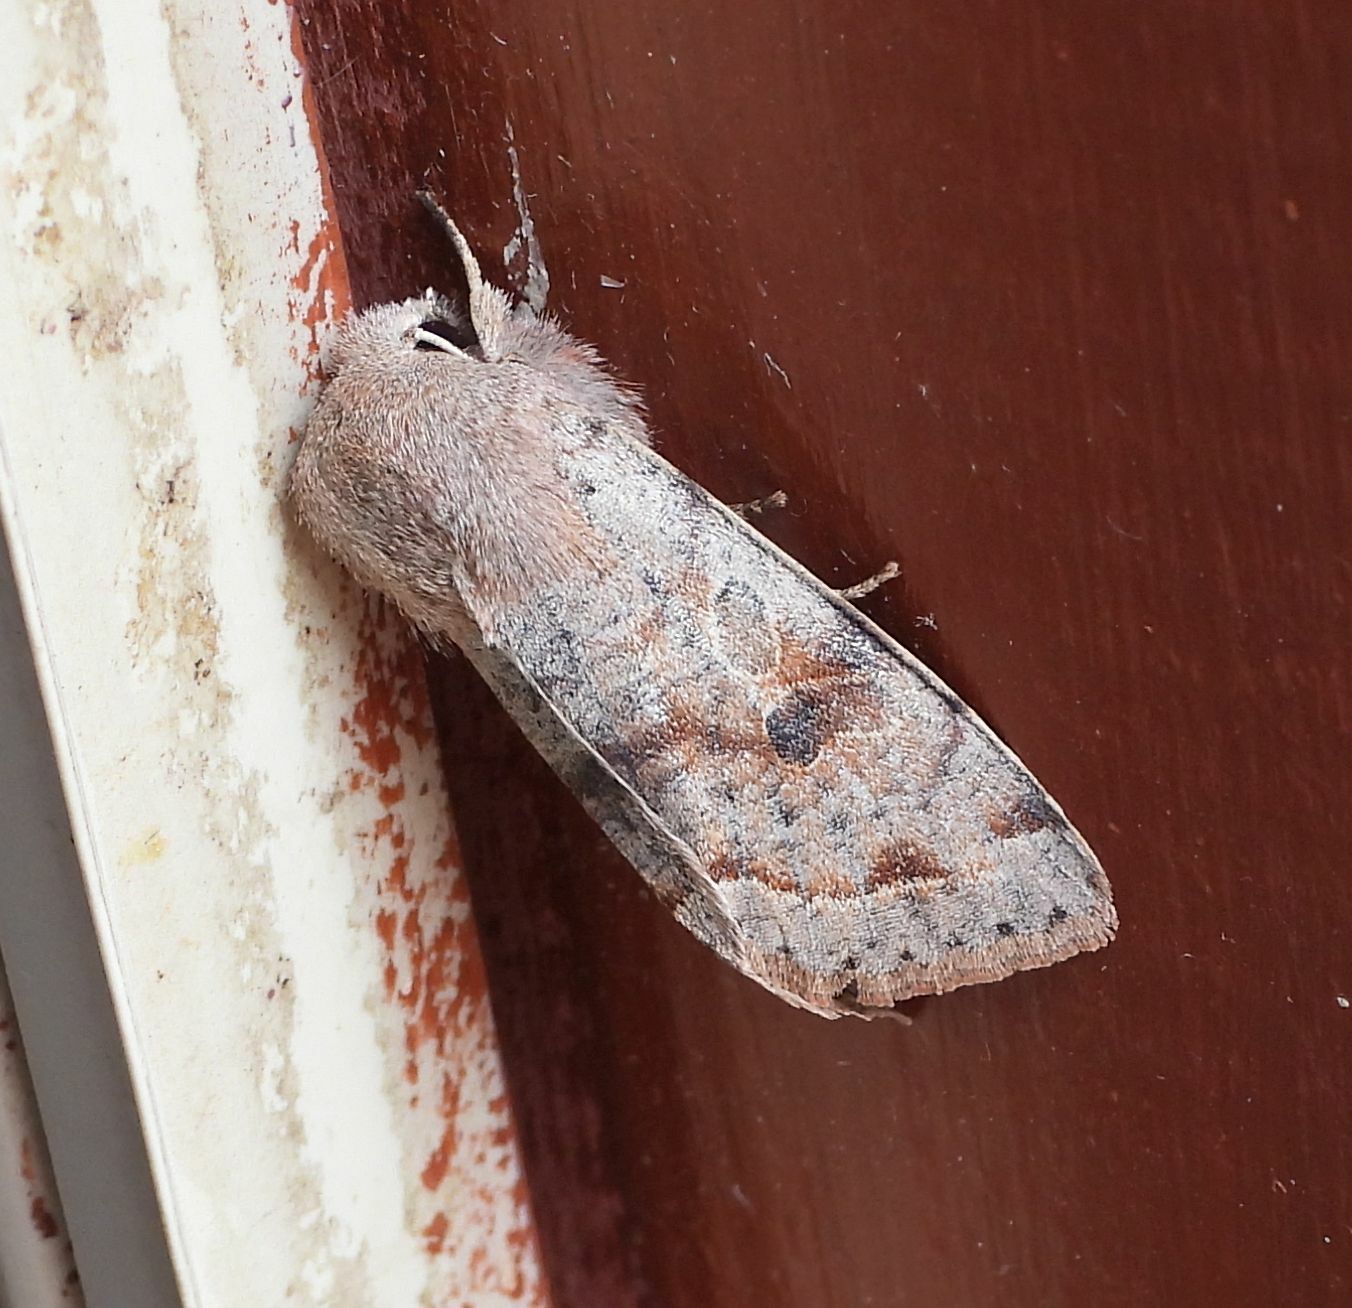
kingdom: Animalia
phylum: Arthropoda
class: Insecta
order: Lepidoptera
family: Noctuidae
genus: Orthosia
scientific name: Orthosia hibisci
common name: Green fruitworm
